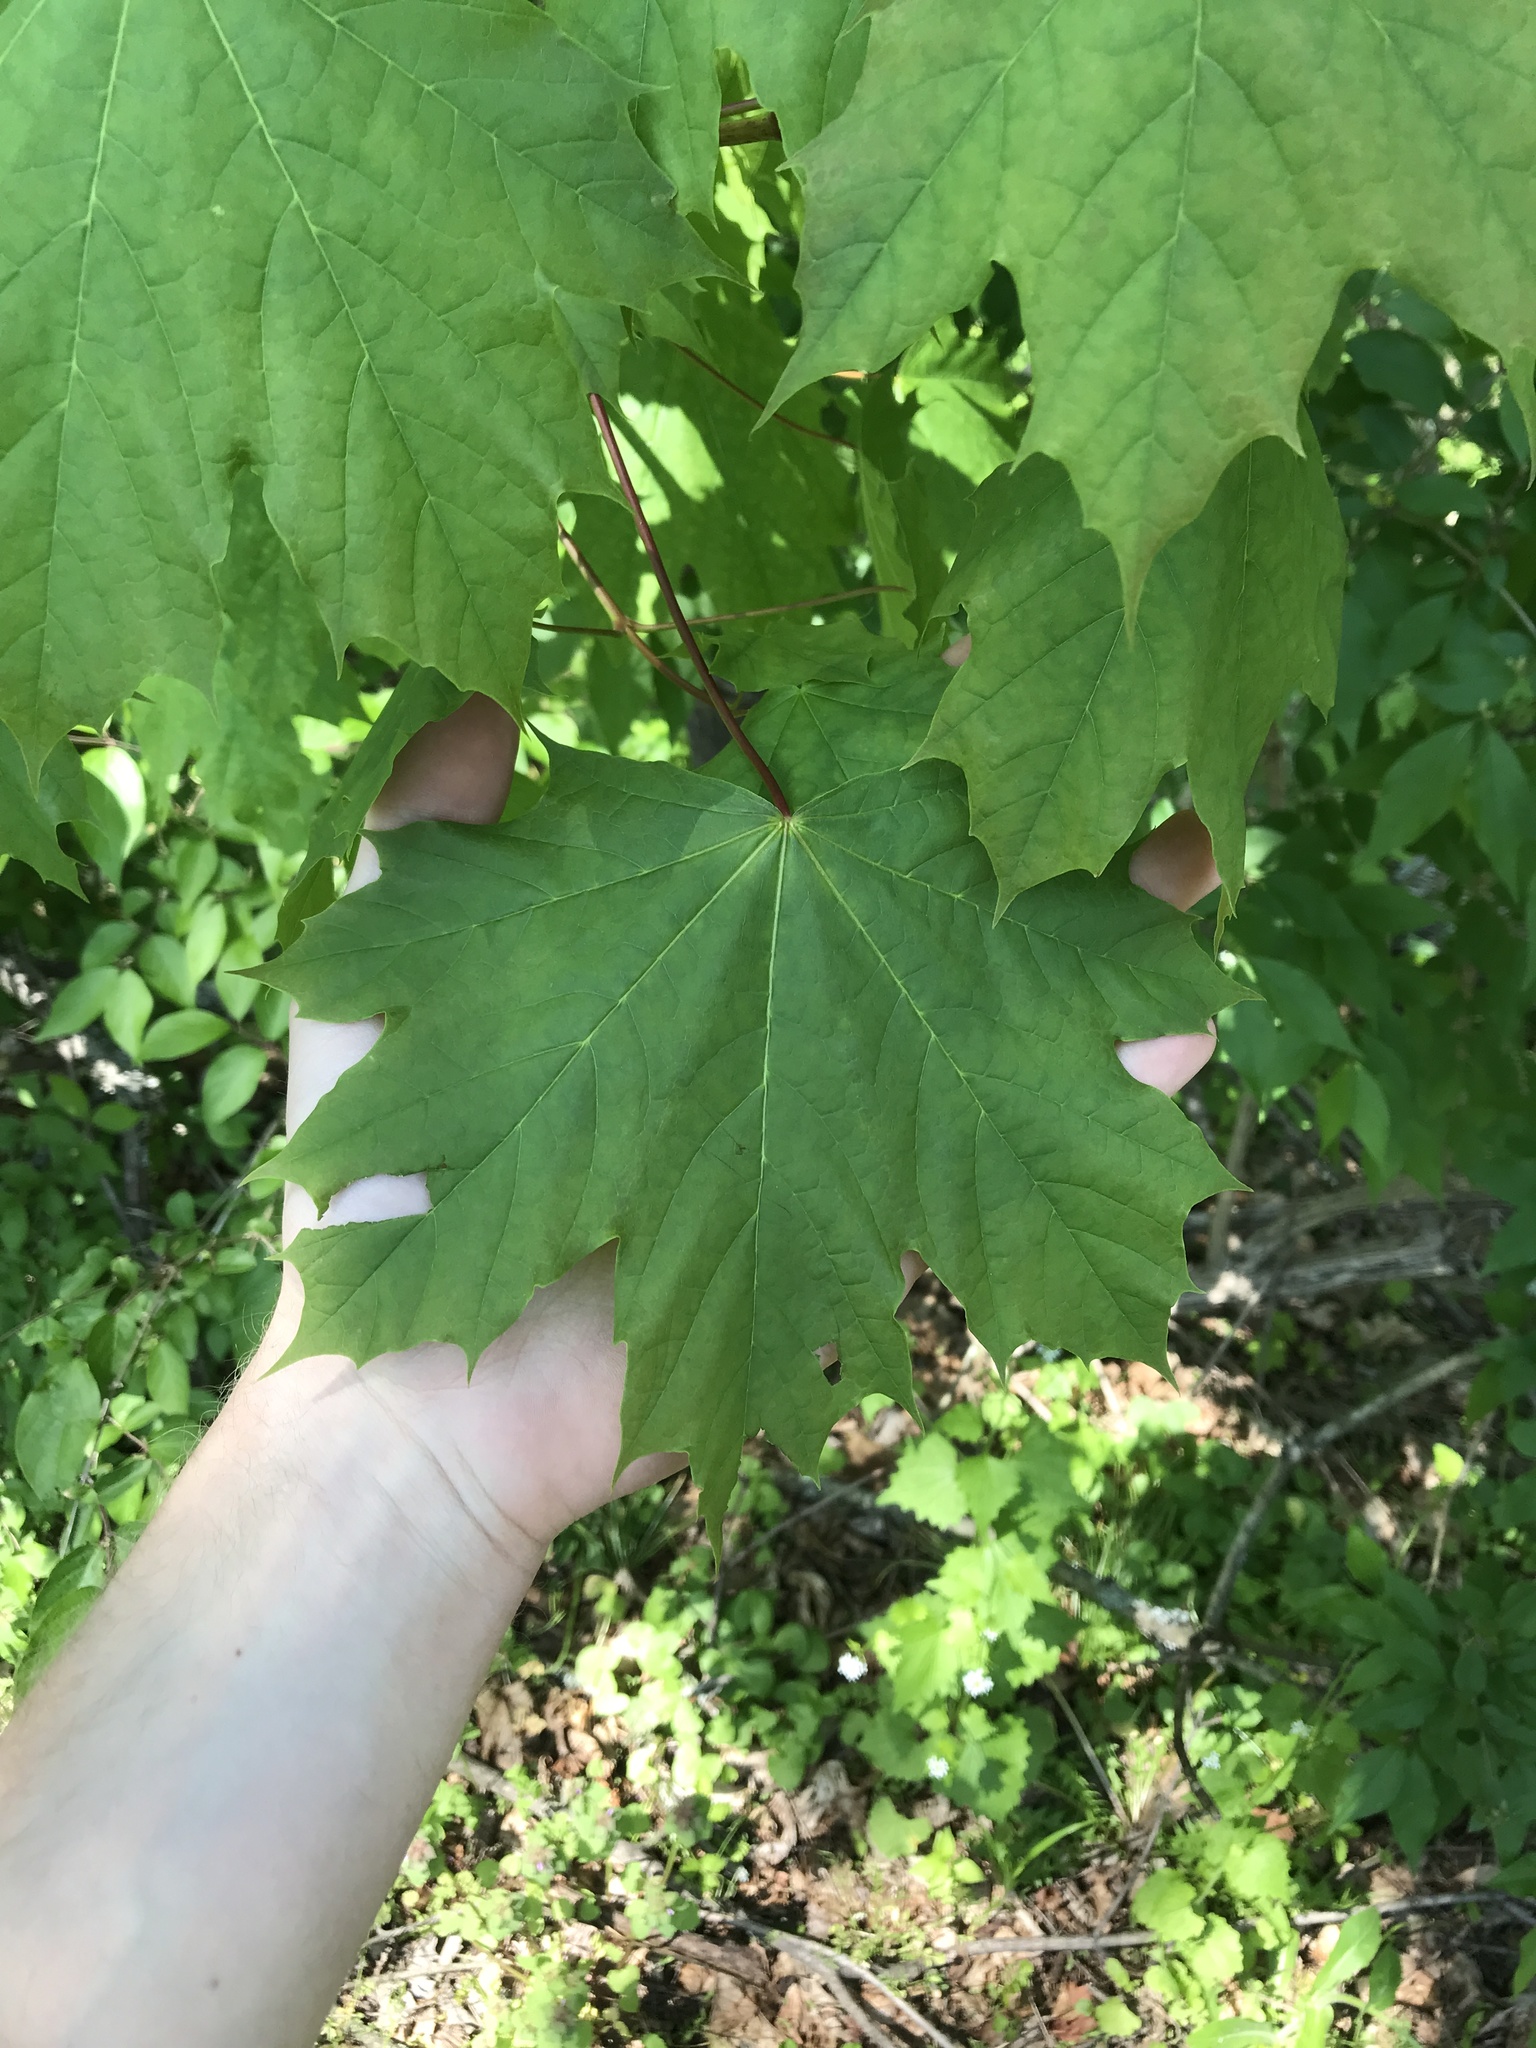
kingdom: Plantae
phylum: Tracheophyta
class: Magnoliopsida
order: Sapindales
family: Sapindaceae
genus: Acer
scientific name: Acer platanoides
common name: Norway maple
